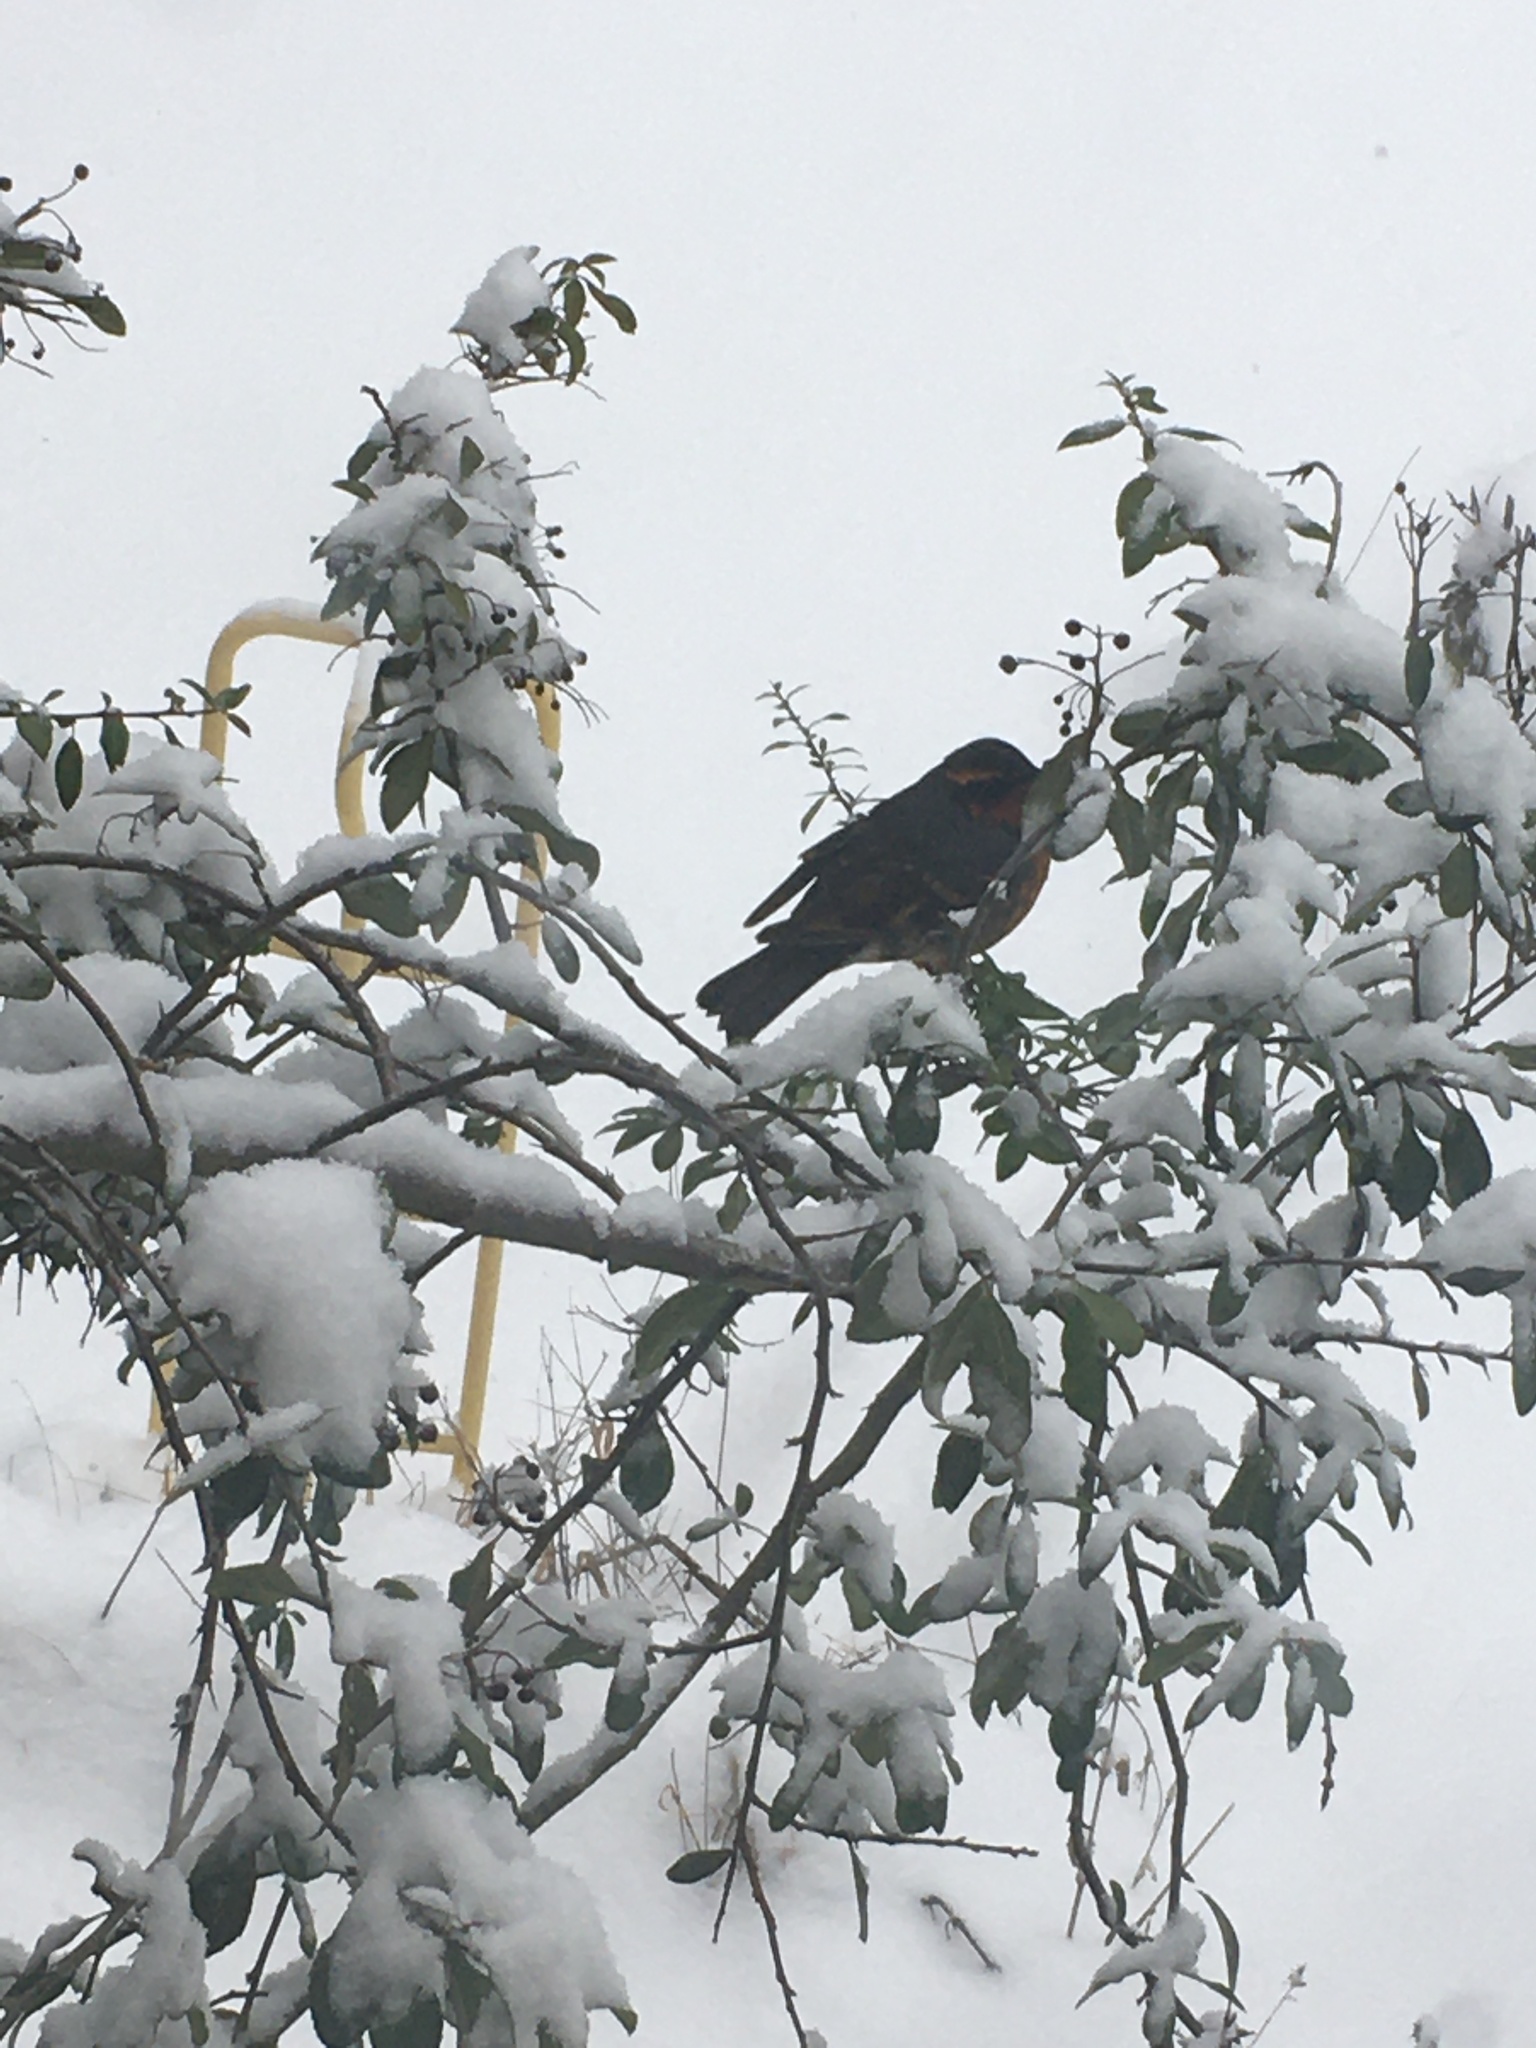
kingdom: Animalia
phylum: Chordata
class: Aves
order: Passeriformes
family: Turdidae
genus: Ixoreus
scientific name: Ixoreus naevius
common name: Varied thrush
